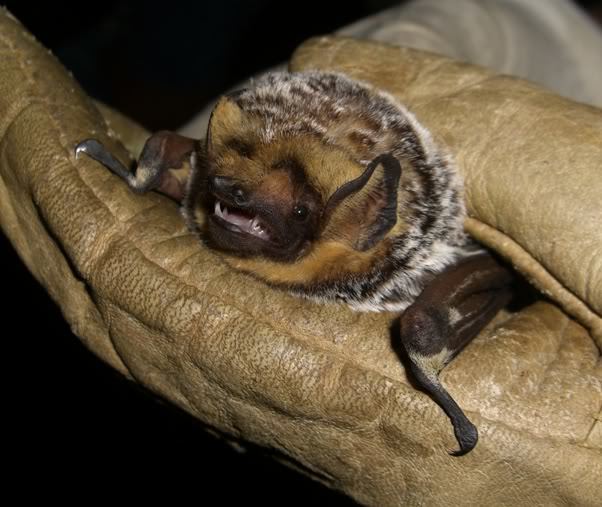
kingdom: Animalia
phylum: Chordata
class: Mammalia
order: Chiroptera
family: Vespertilionidae
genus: Aeorestes
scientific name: Aeorestes cinereus
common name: North american hoary bat
